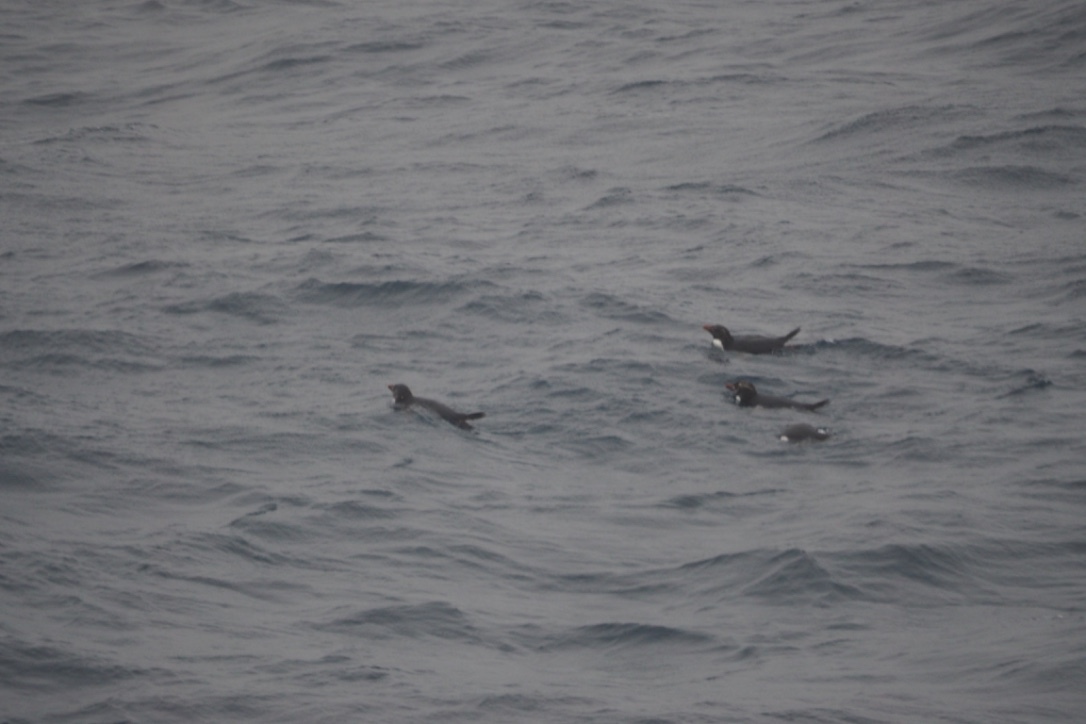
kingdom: Animalia
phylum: Chordata
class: Aves
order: Sphenisciformes
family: Spheniscidae
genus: Eudyptes
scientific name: Eudyptes filholi
